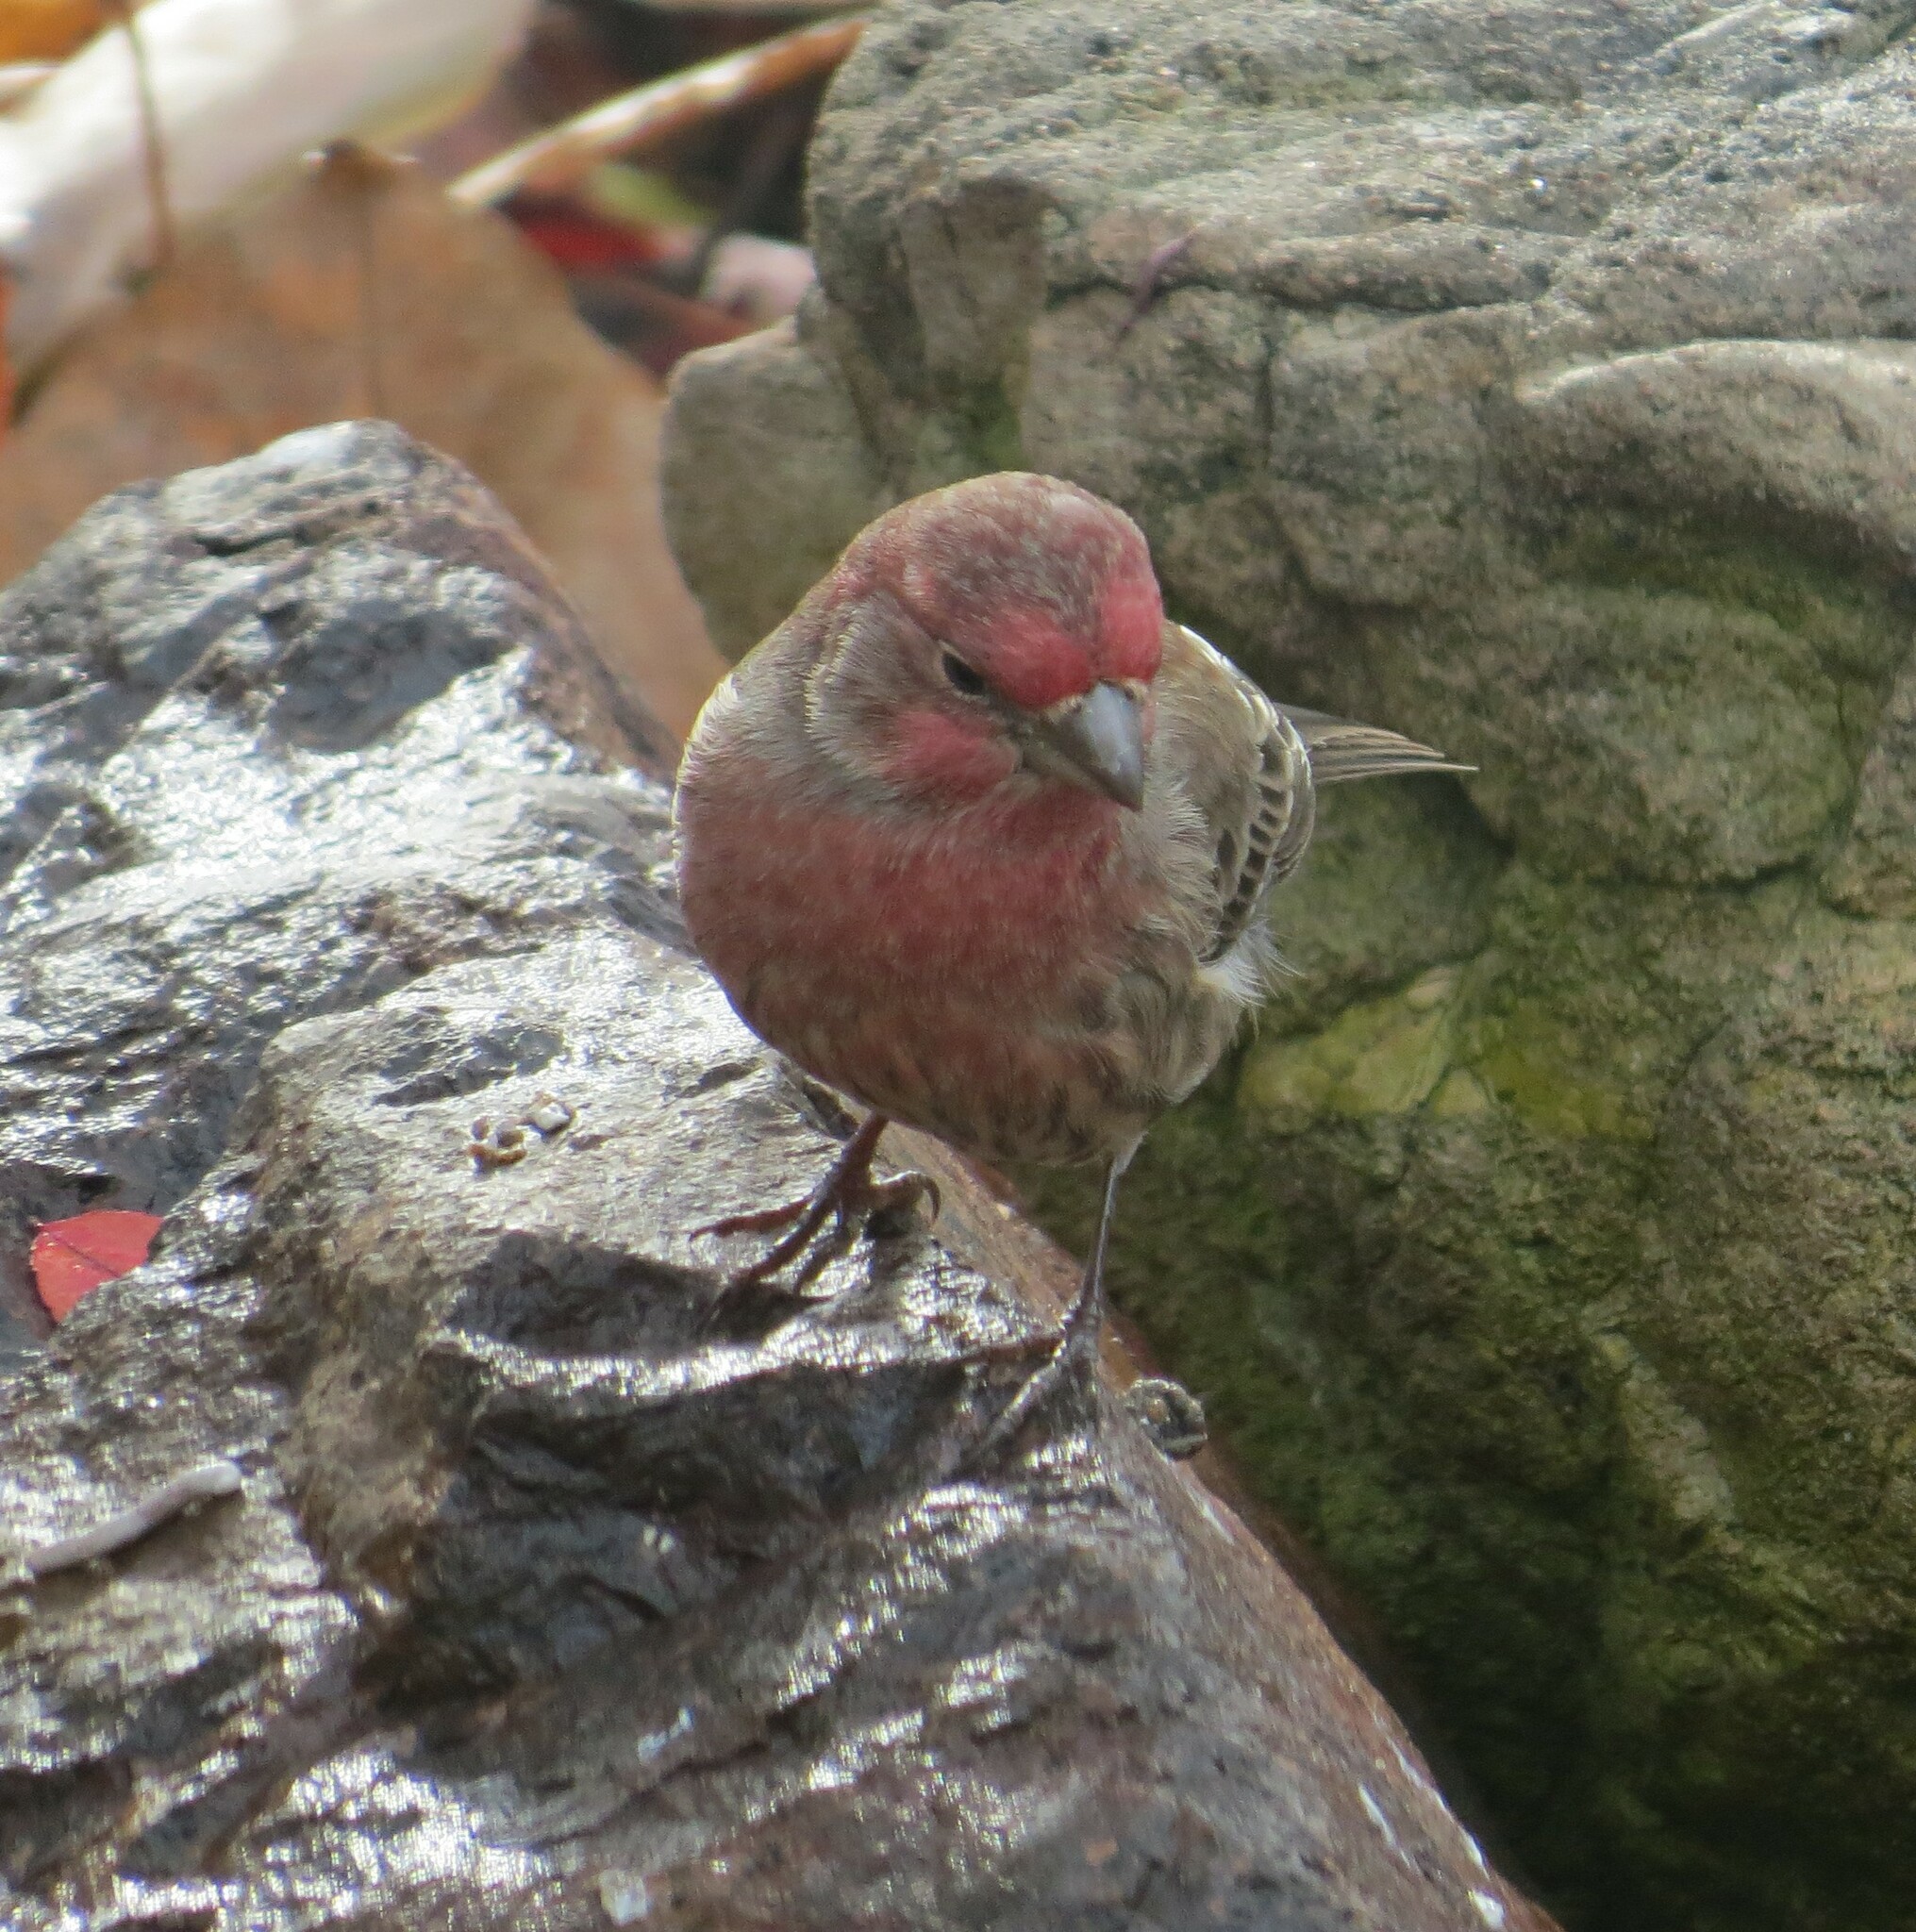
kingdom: Animalia
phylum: Chordata
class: Aves
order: Passeriformes
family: Fringillidae
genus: Haemorhous
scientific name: Haemorhous mexicanus
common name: House finch
